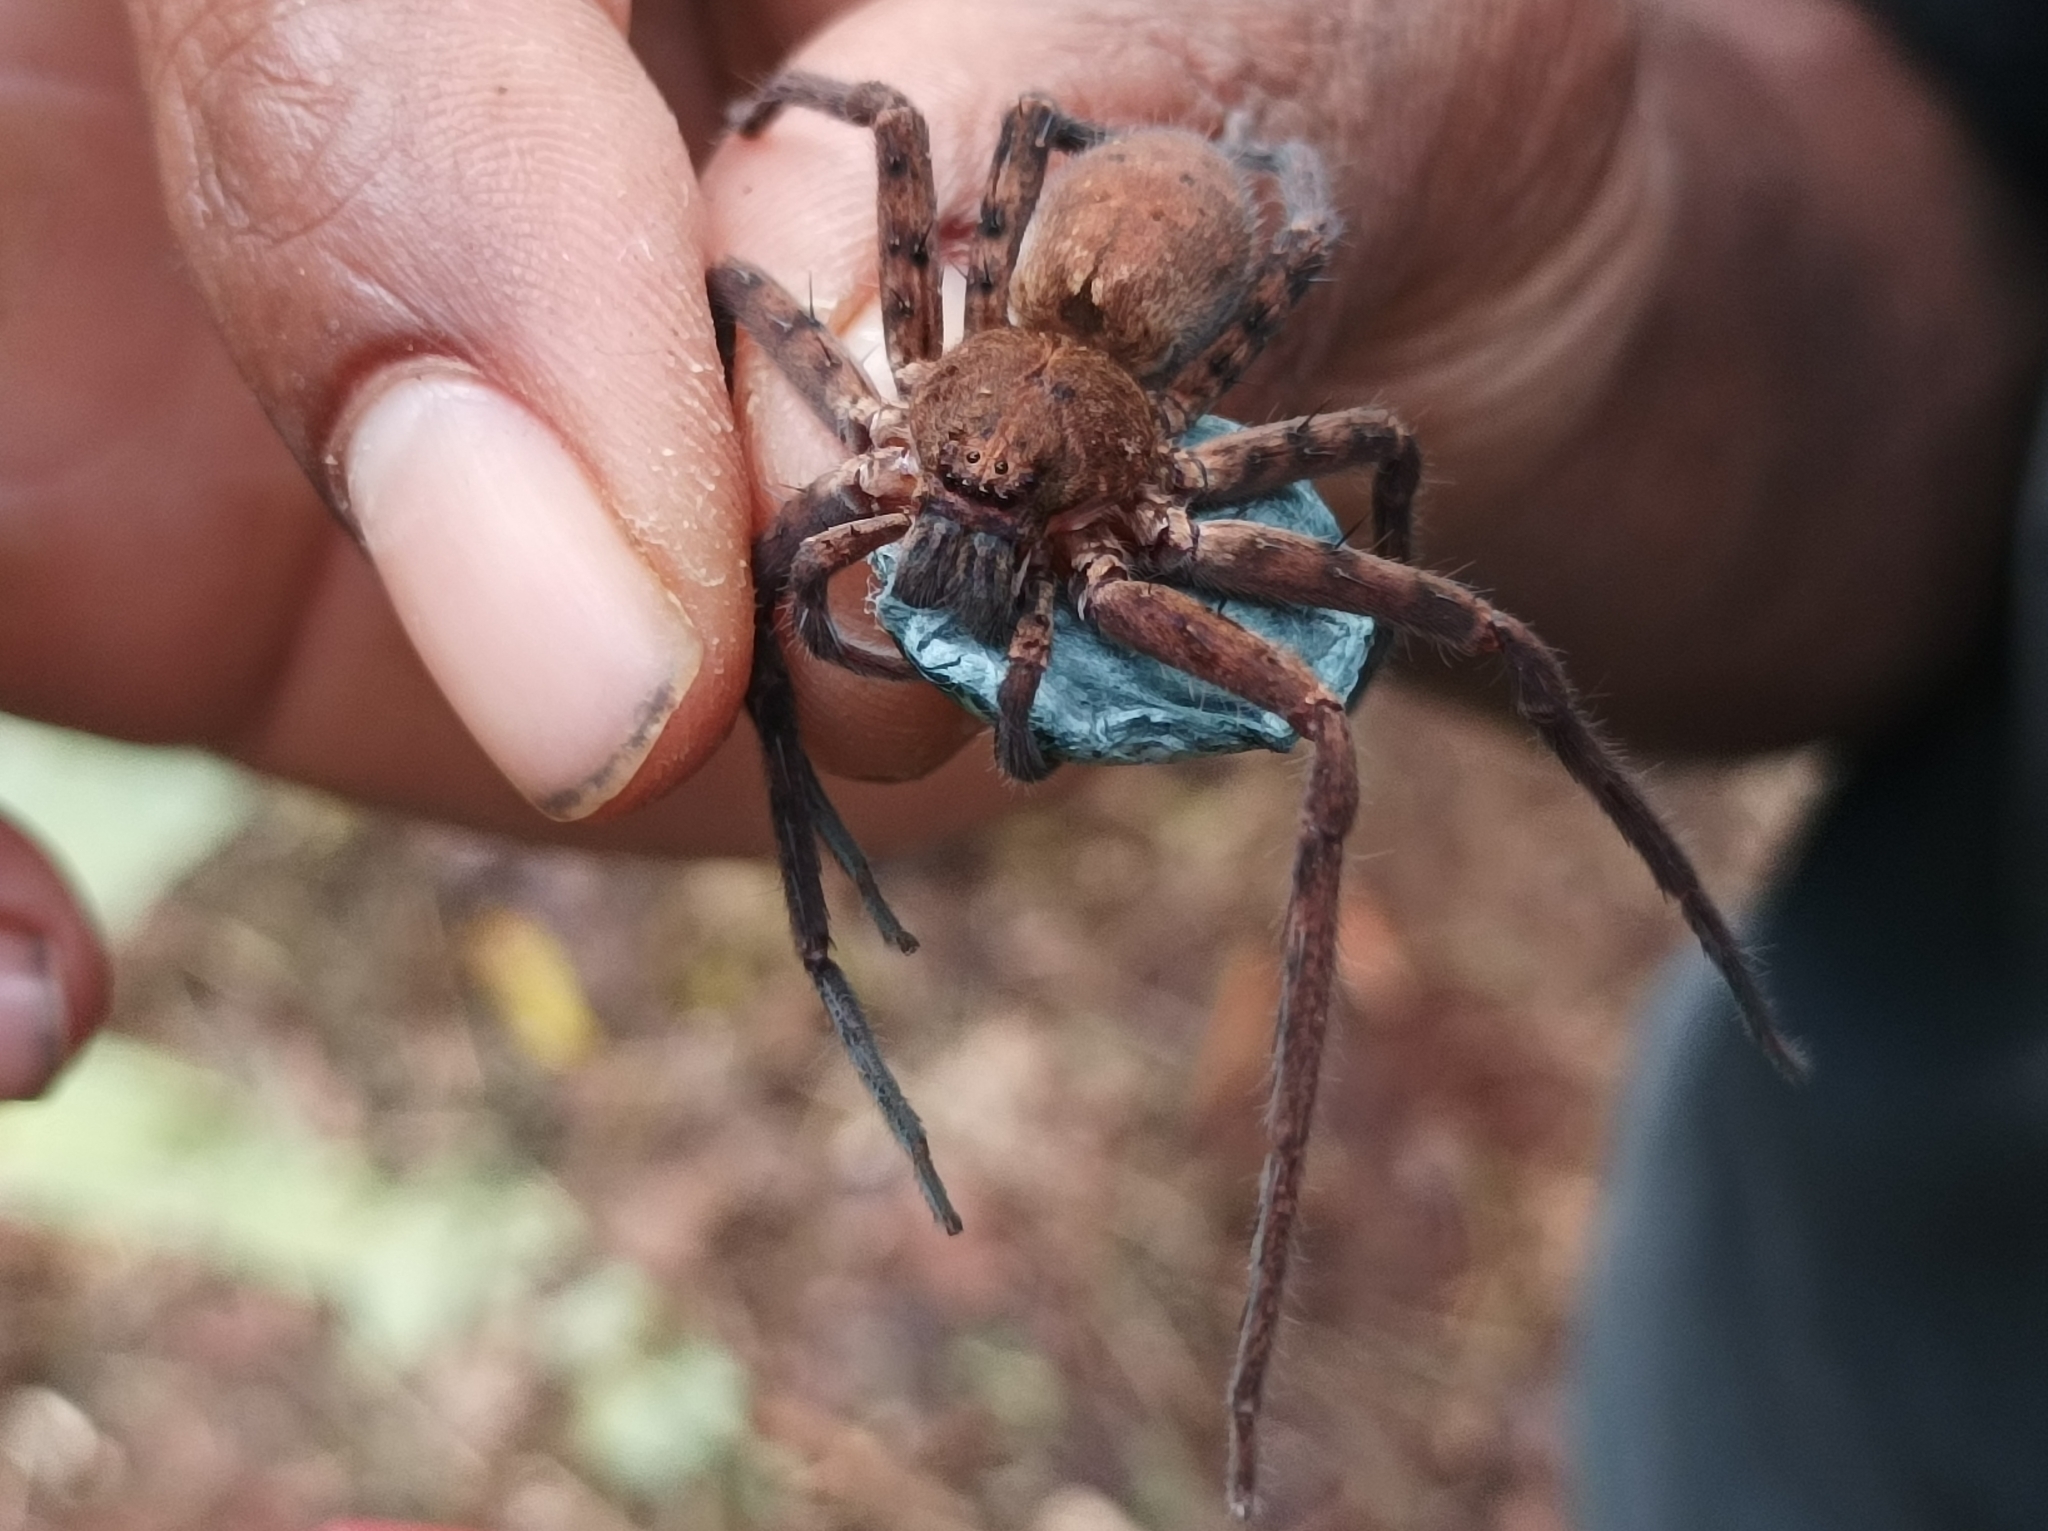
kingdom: Animalia
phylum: Arthropoda
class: Arachnida
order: Araneae
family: Sparassidae
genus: Heteropoda
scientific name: Heteropoda nobilis
